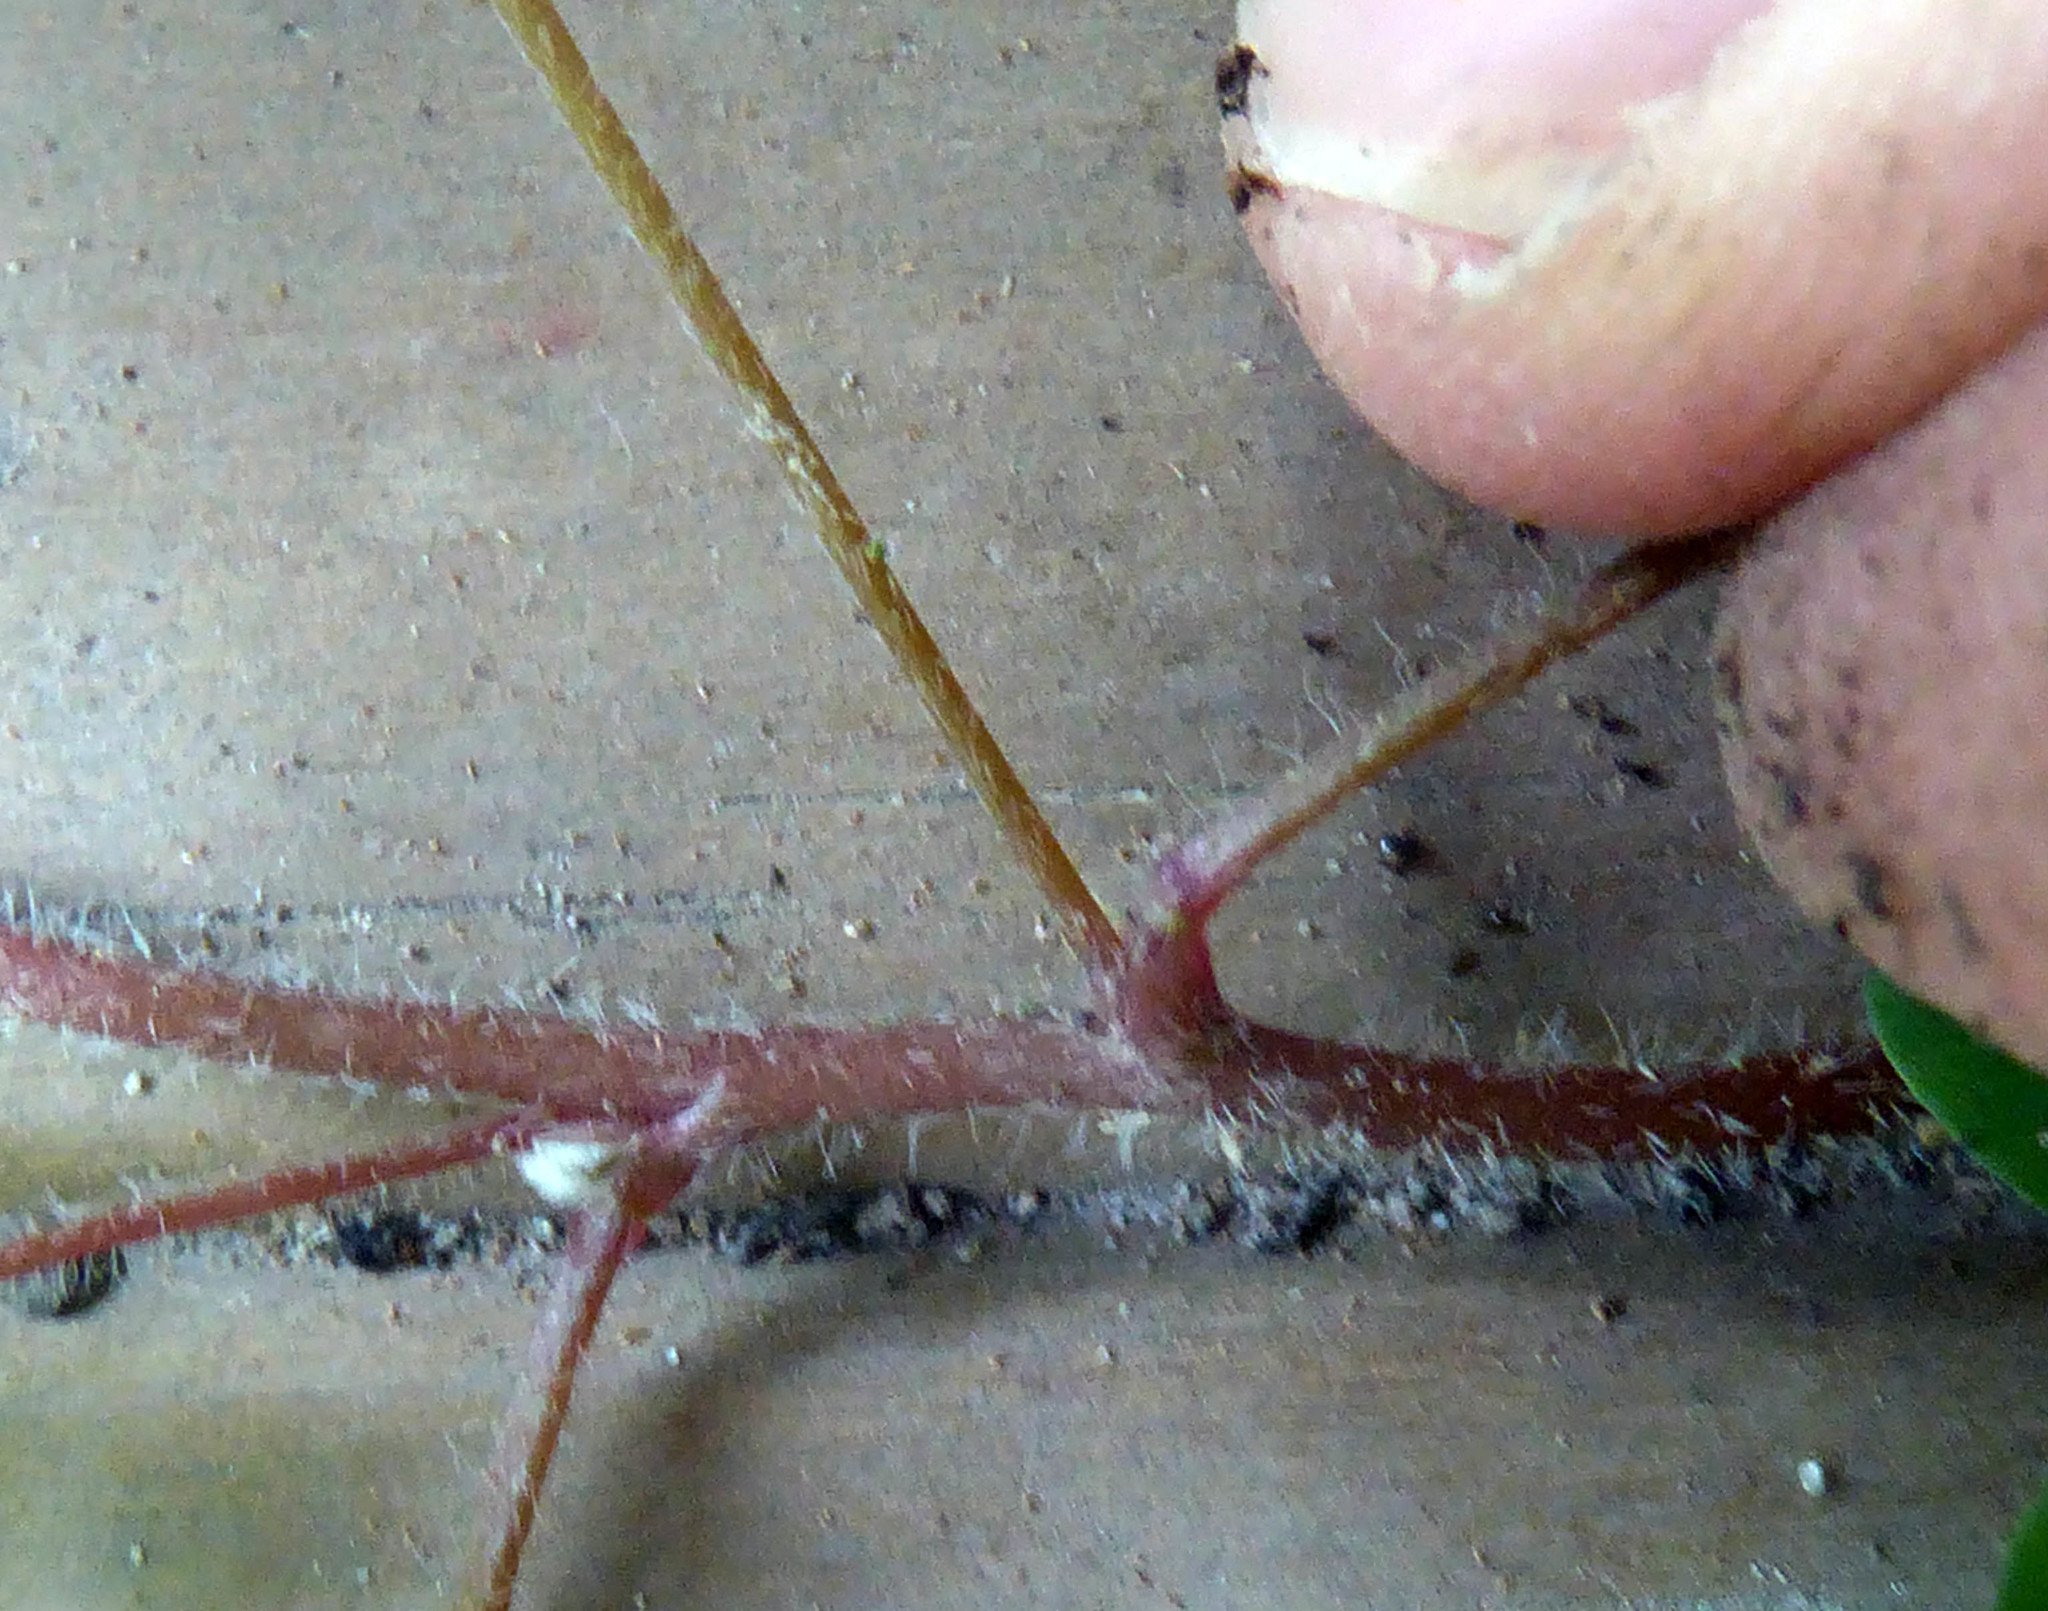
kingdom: Plantae
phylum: Tracheophyta
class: Magnoliopsida
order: Oxalidales
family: Oxalidaceae
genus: Oxalis
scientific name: Oxalis corniculata
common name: Procumbent yellow-sorrel
